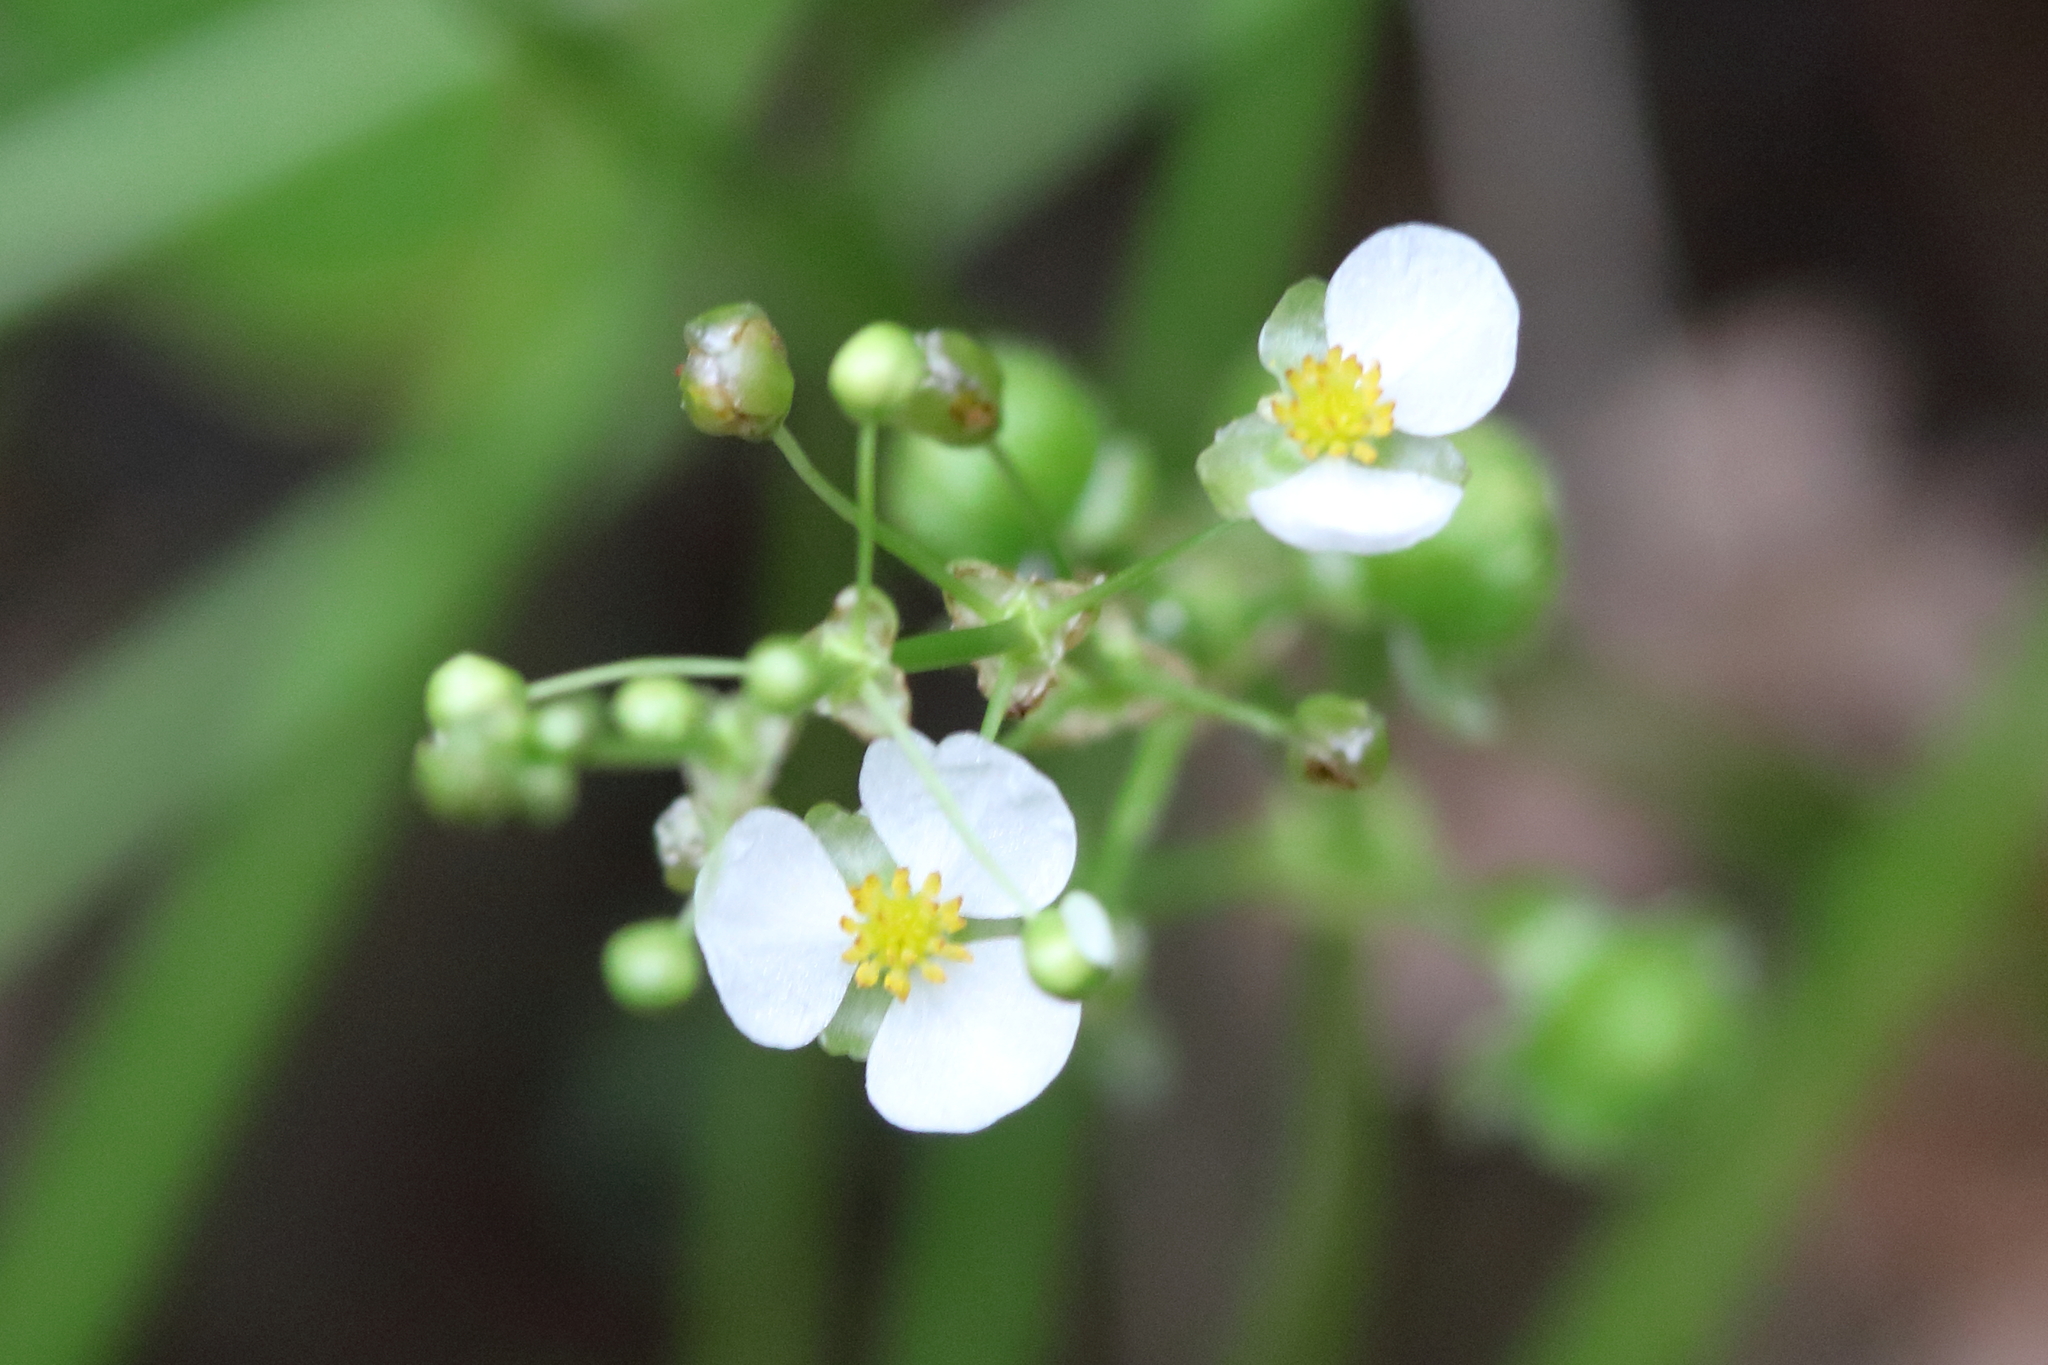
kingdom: Plantae
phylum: Tracheophyta
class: Liliopsida
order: Alismatales
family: Alismataceae
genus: Sagittaria
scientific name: Sagittaria latifolia
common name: Duck-potato
